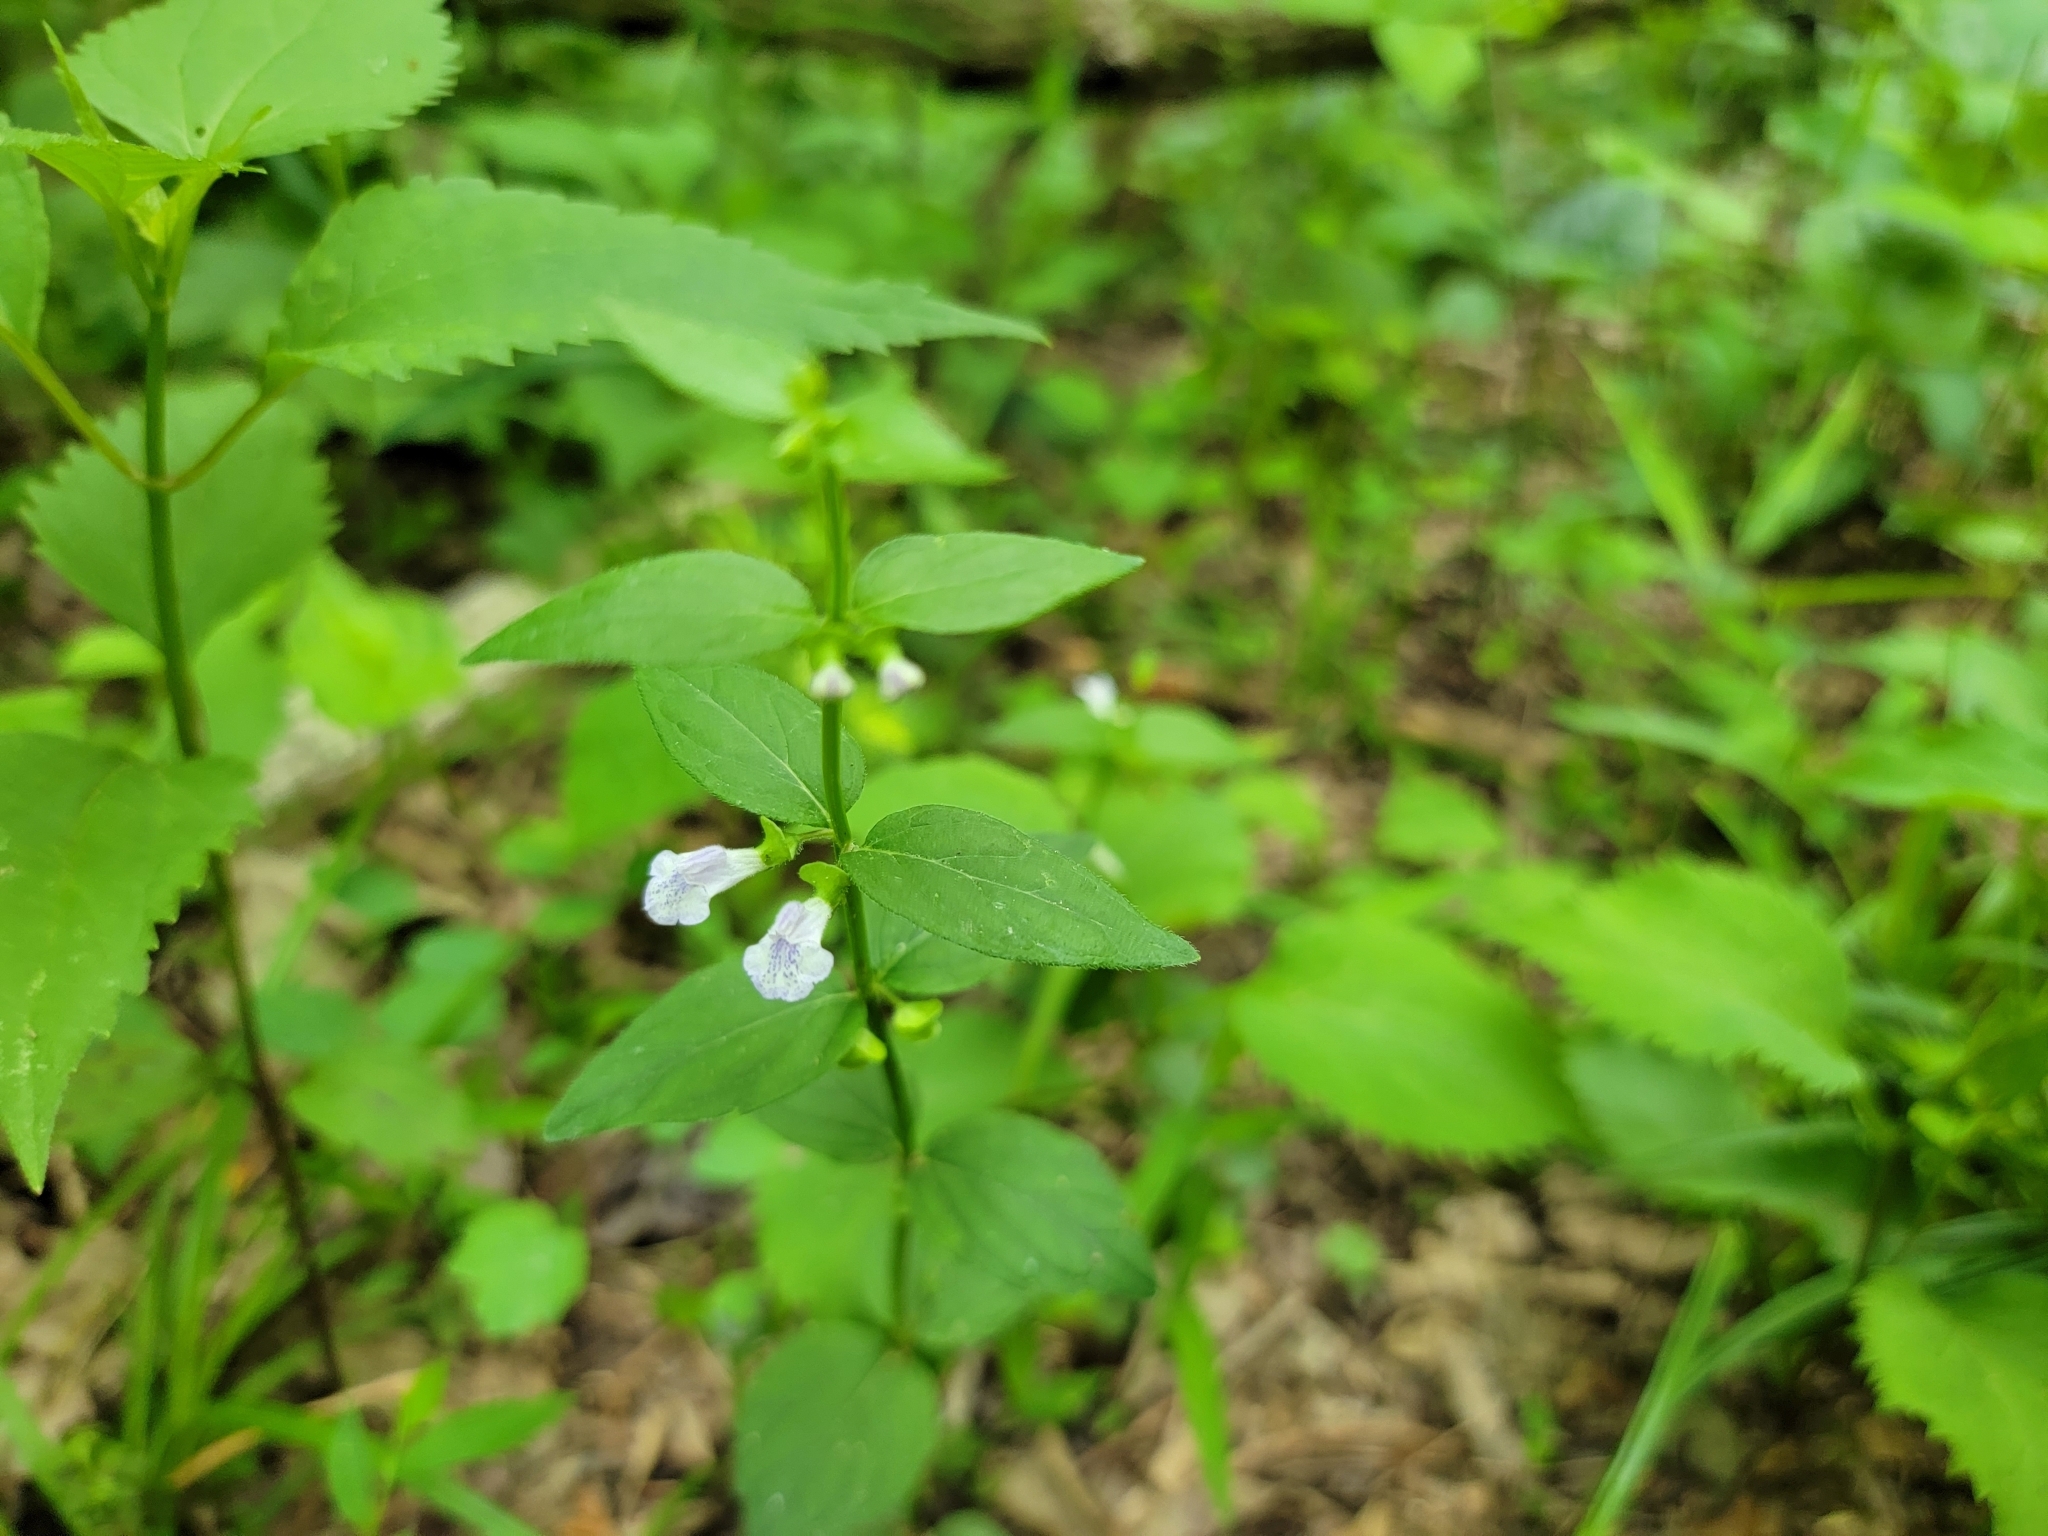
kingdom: Plantae
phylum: Tracheophyta
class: Magnoliopsida
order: Lamiales
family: Lamiaceae
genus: Scutellaria
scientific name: Scutellaria nervosa
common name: Bottomland skullcap
